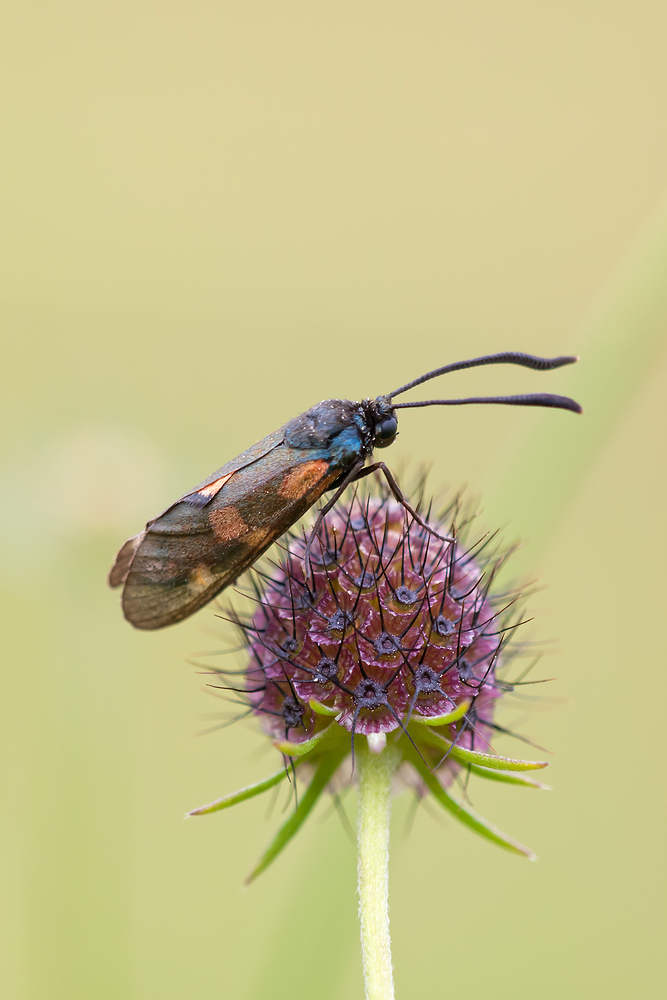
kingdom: Animalia
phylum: Arthropoda
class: Insecta
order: Lepidoptera
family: Zygaenidae
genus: Zygaena
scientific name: Zygaena transalpina
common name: Southern six spot burnet
